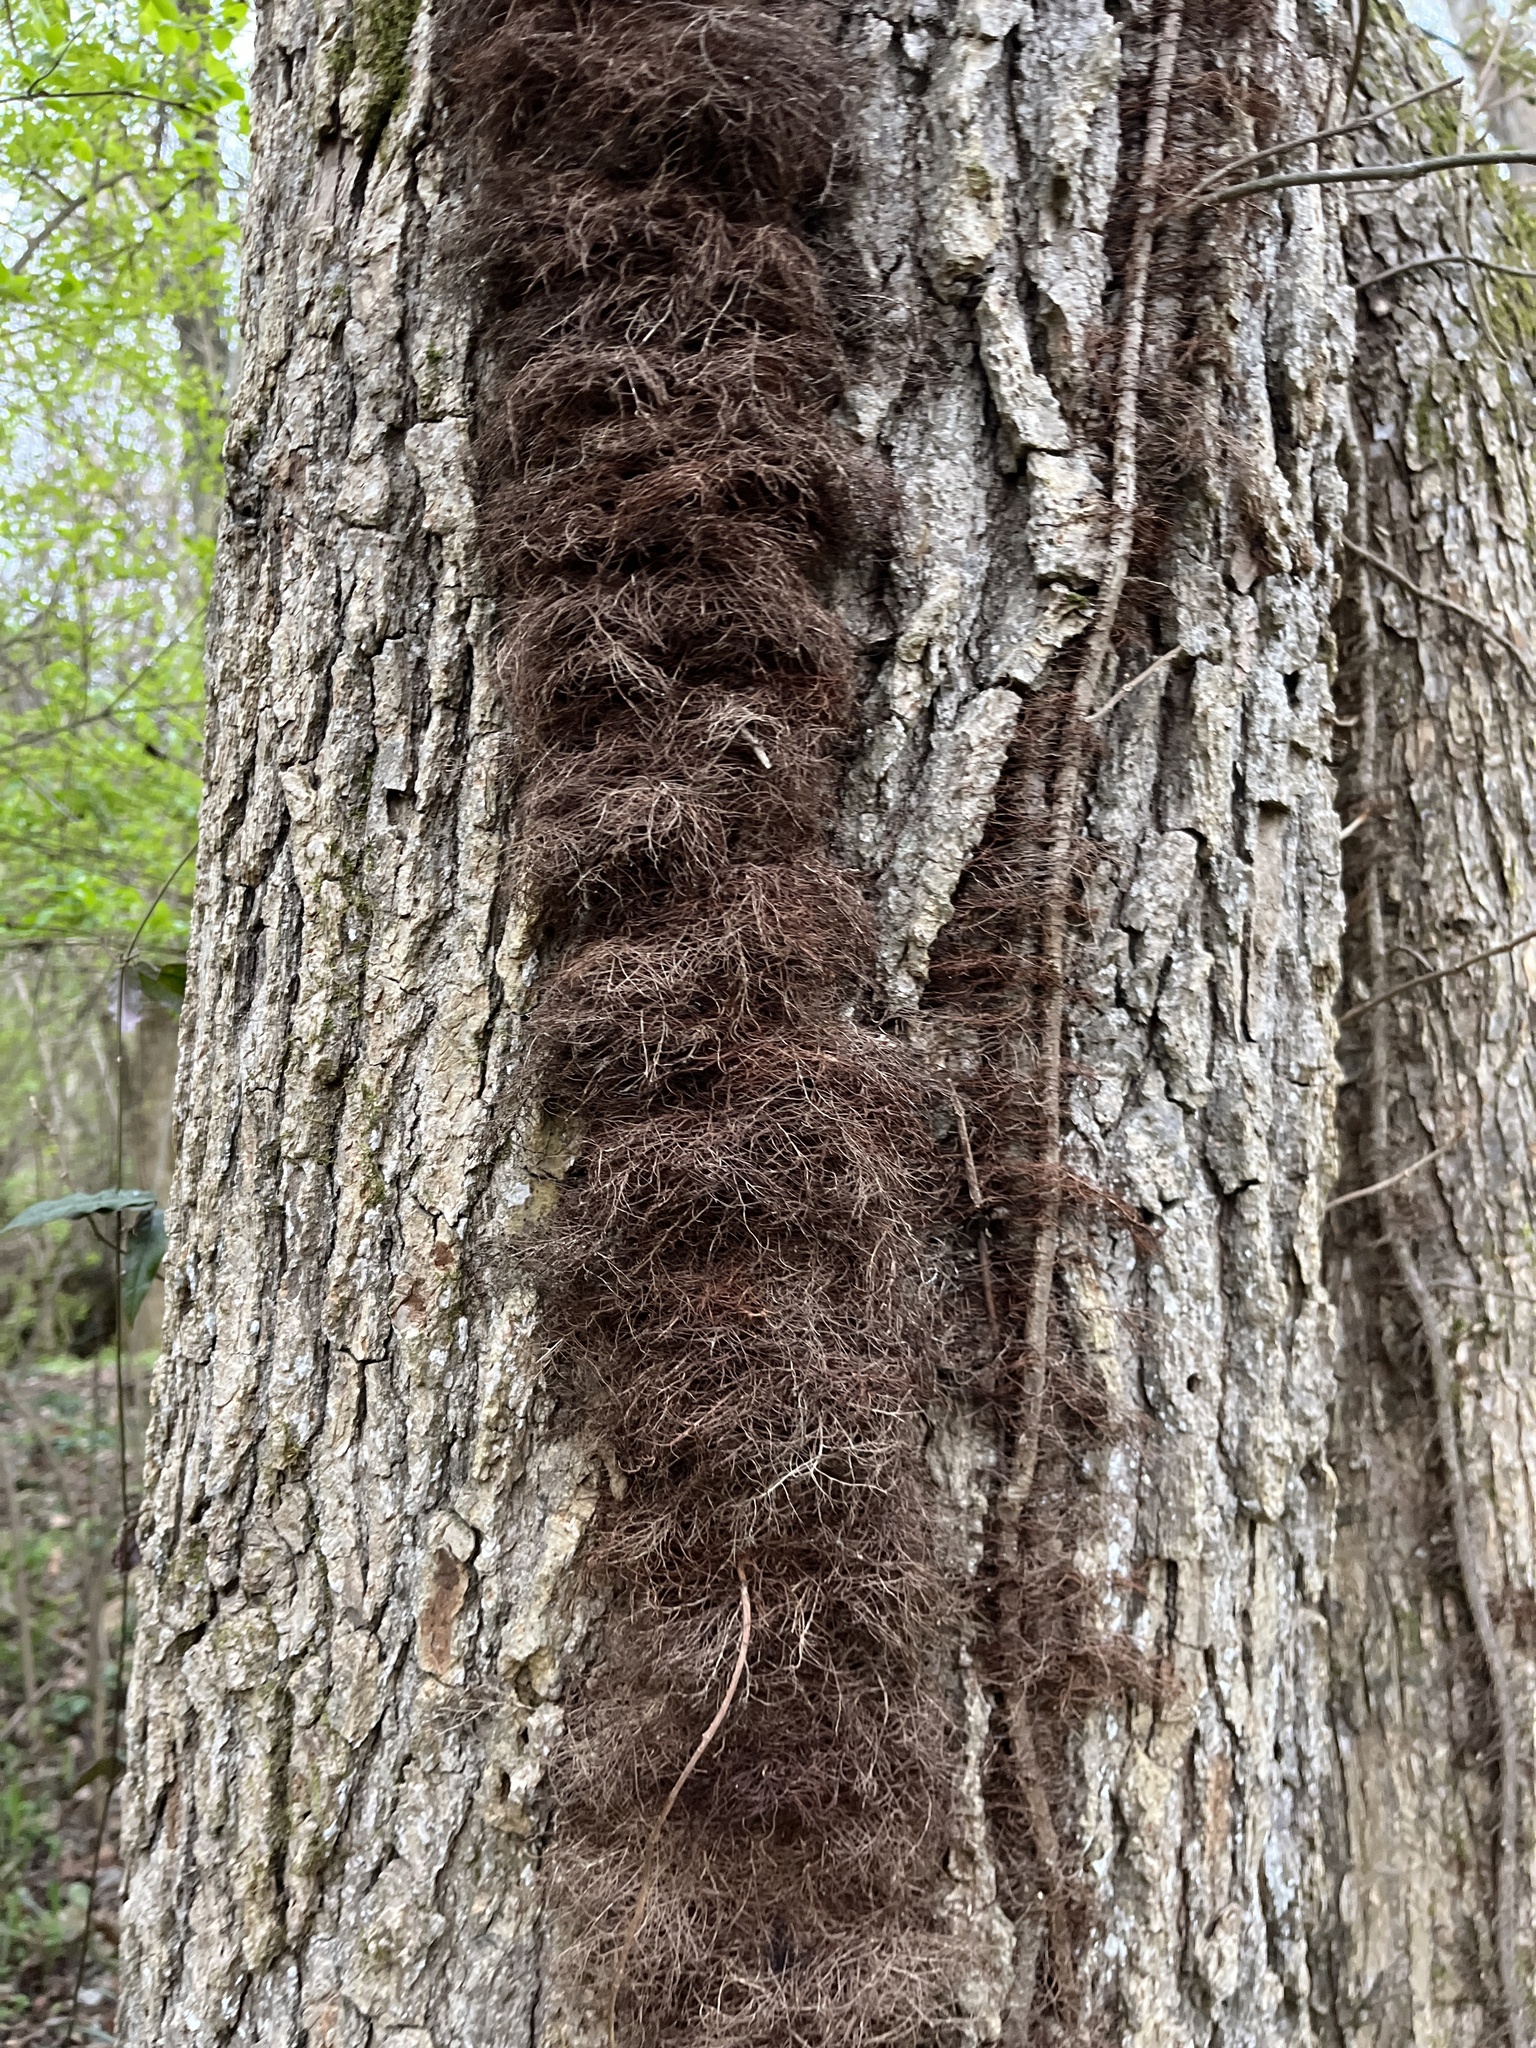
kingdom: Plantae
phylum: Tracheophyta
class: Magnoliopsida
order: Sapindales
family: Anacardiaceae
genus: Toxicodendron
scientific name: Toxicodendron radicans
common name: Poison ivy
